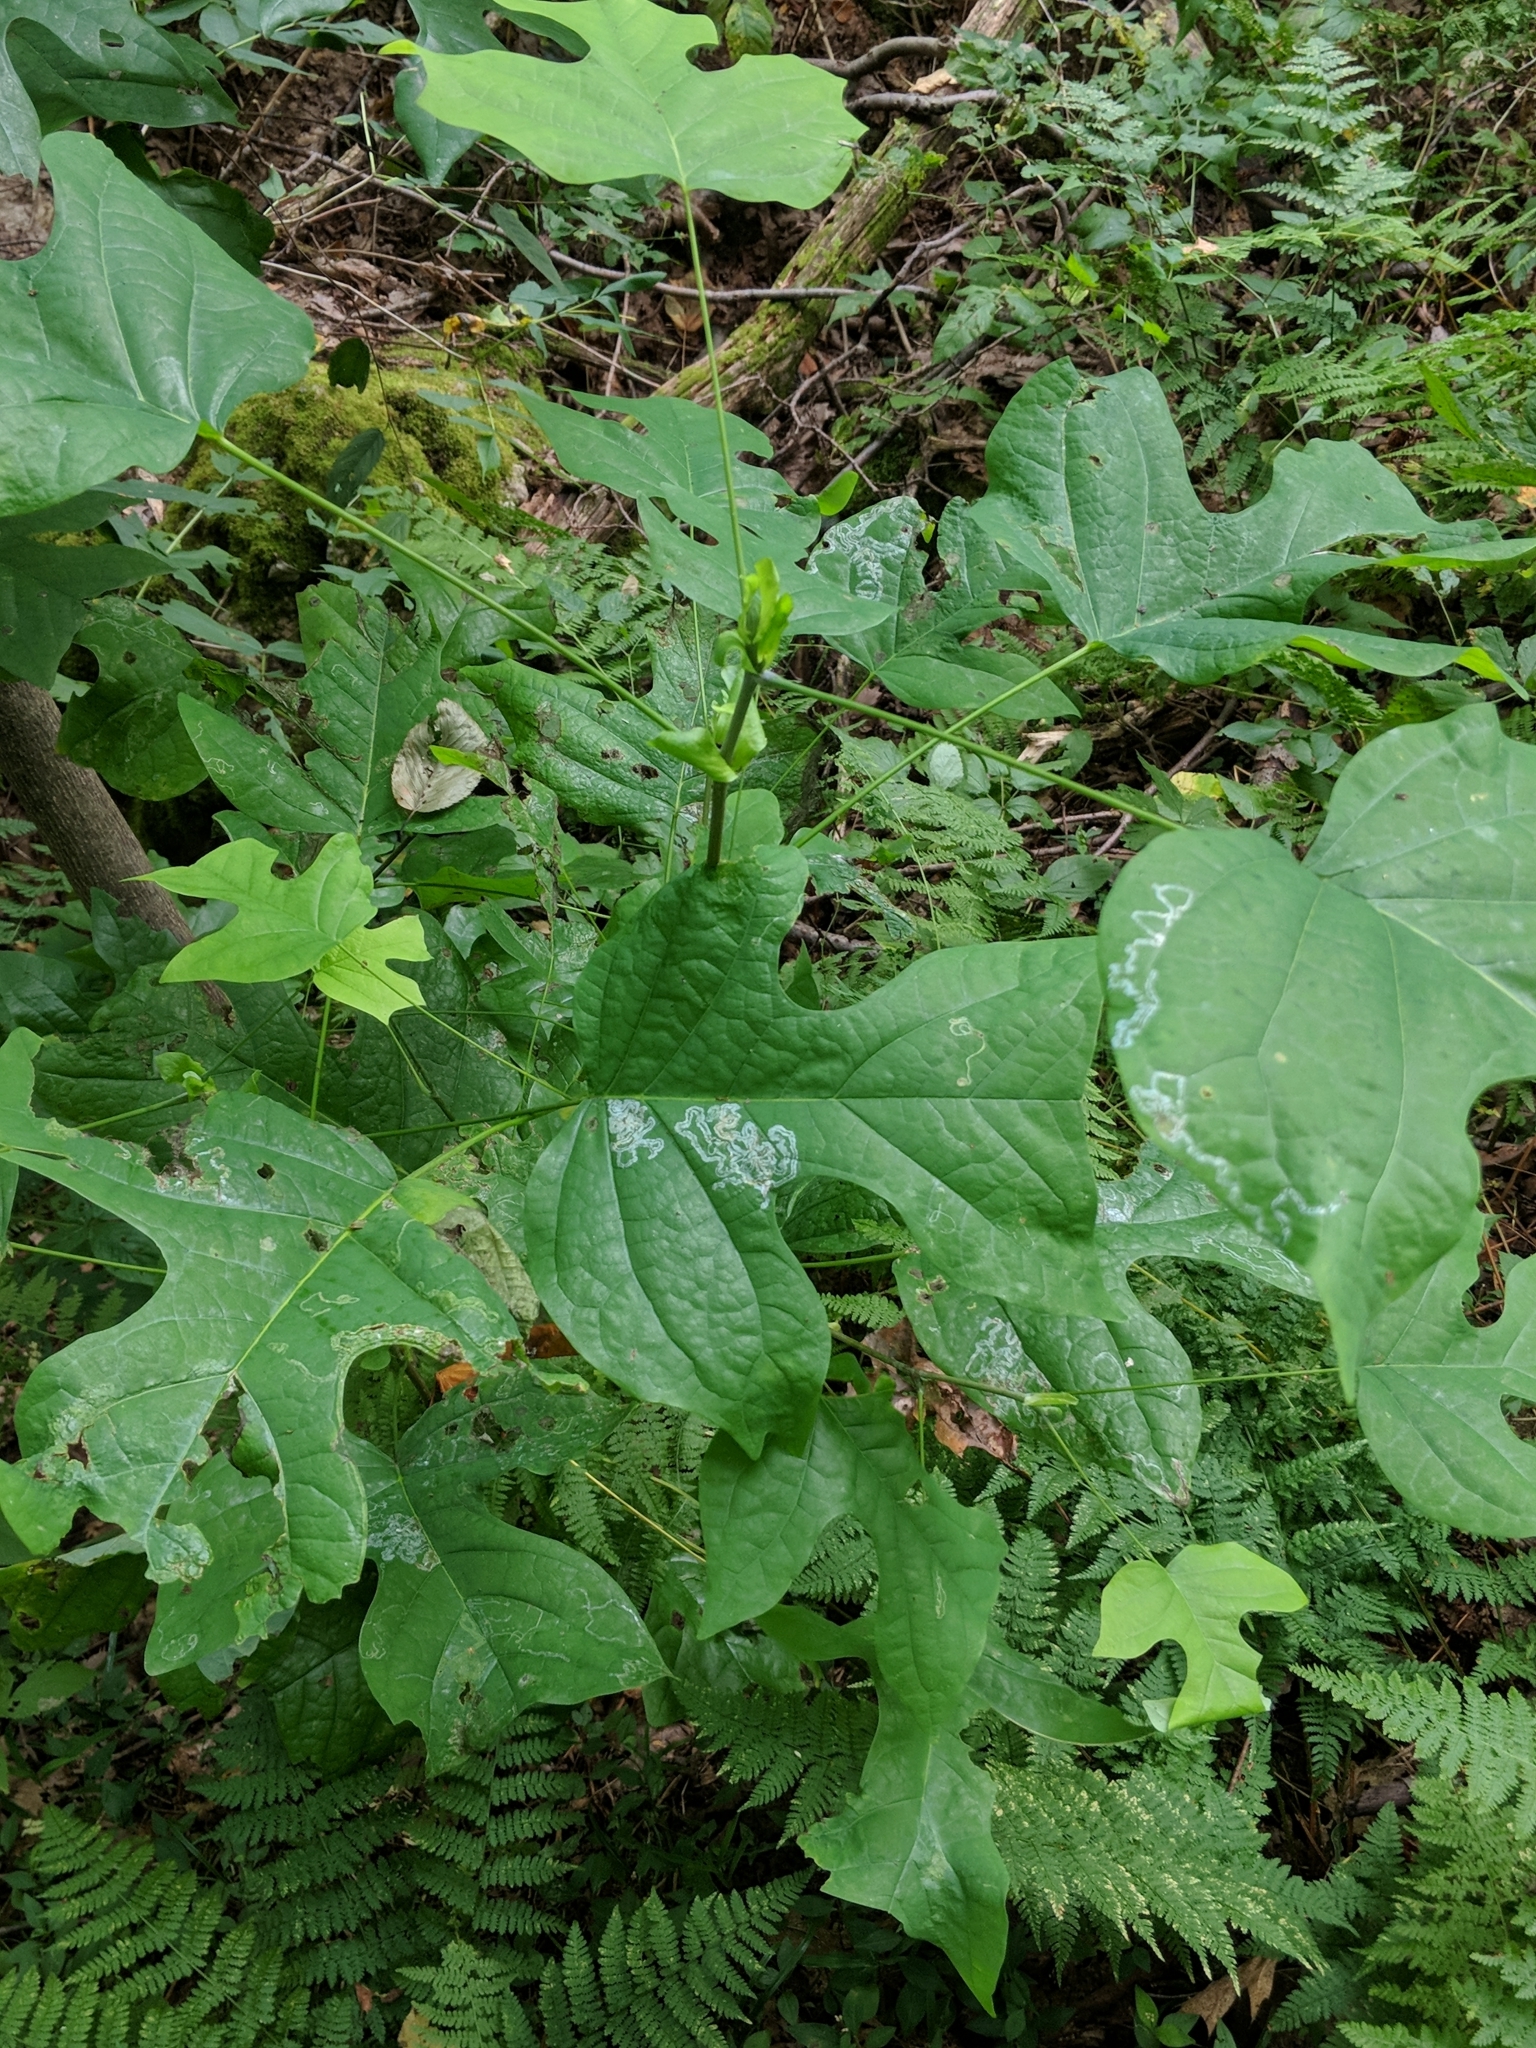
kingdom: Plantae
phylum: Tracheophyta
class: Magnoliopsida
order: Magnoliales
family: Magnoliaceae
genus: Liriodendron
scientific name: Liriodendron tulipifera
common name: Tulip tree
